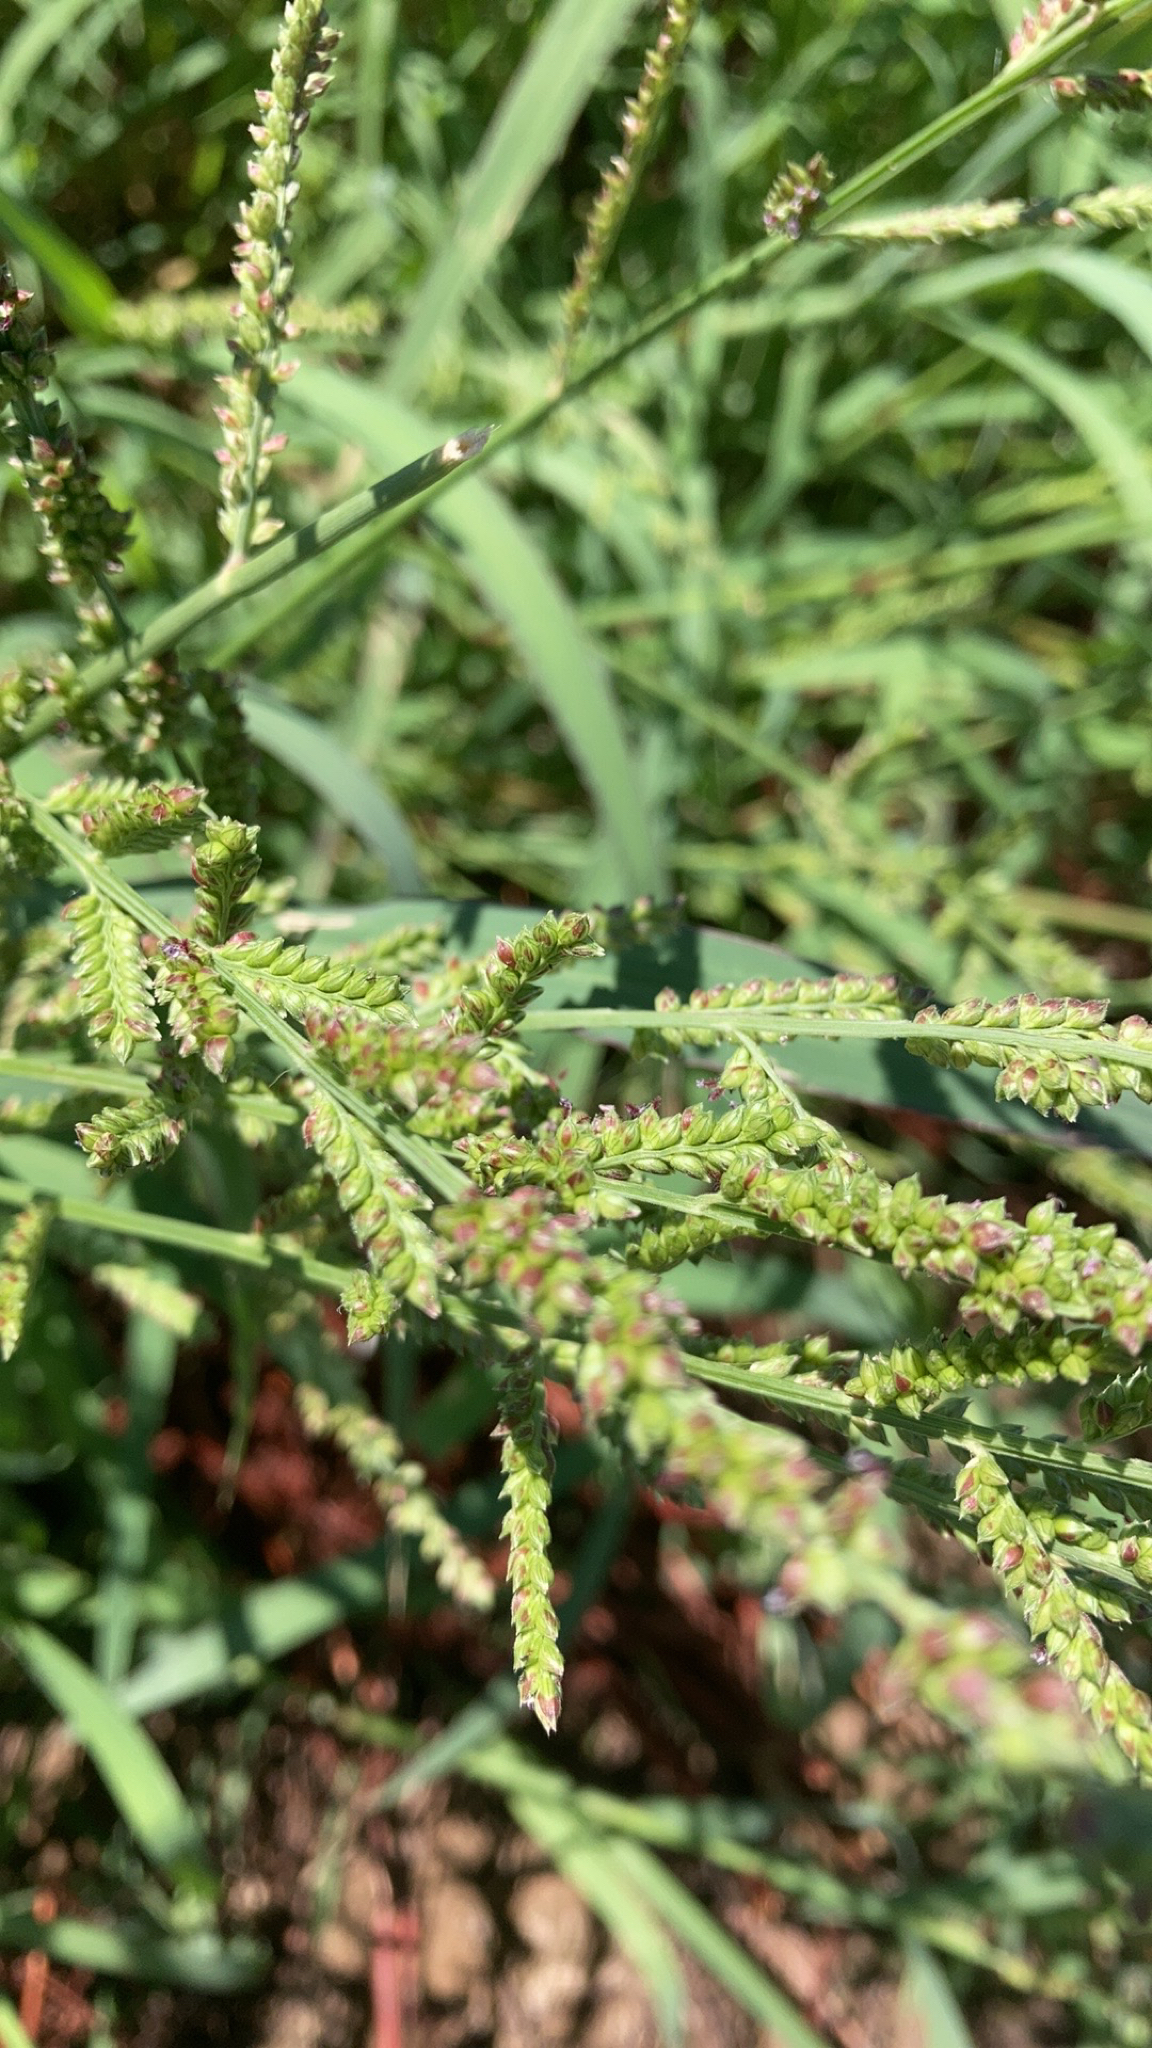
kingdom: Plantae
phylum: Tracheophyta
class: Liliopsida
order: Poales
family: Poaceae
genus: Echinochloa
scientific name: Echinochloa colonum
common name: Jungle rice
